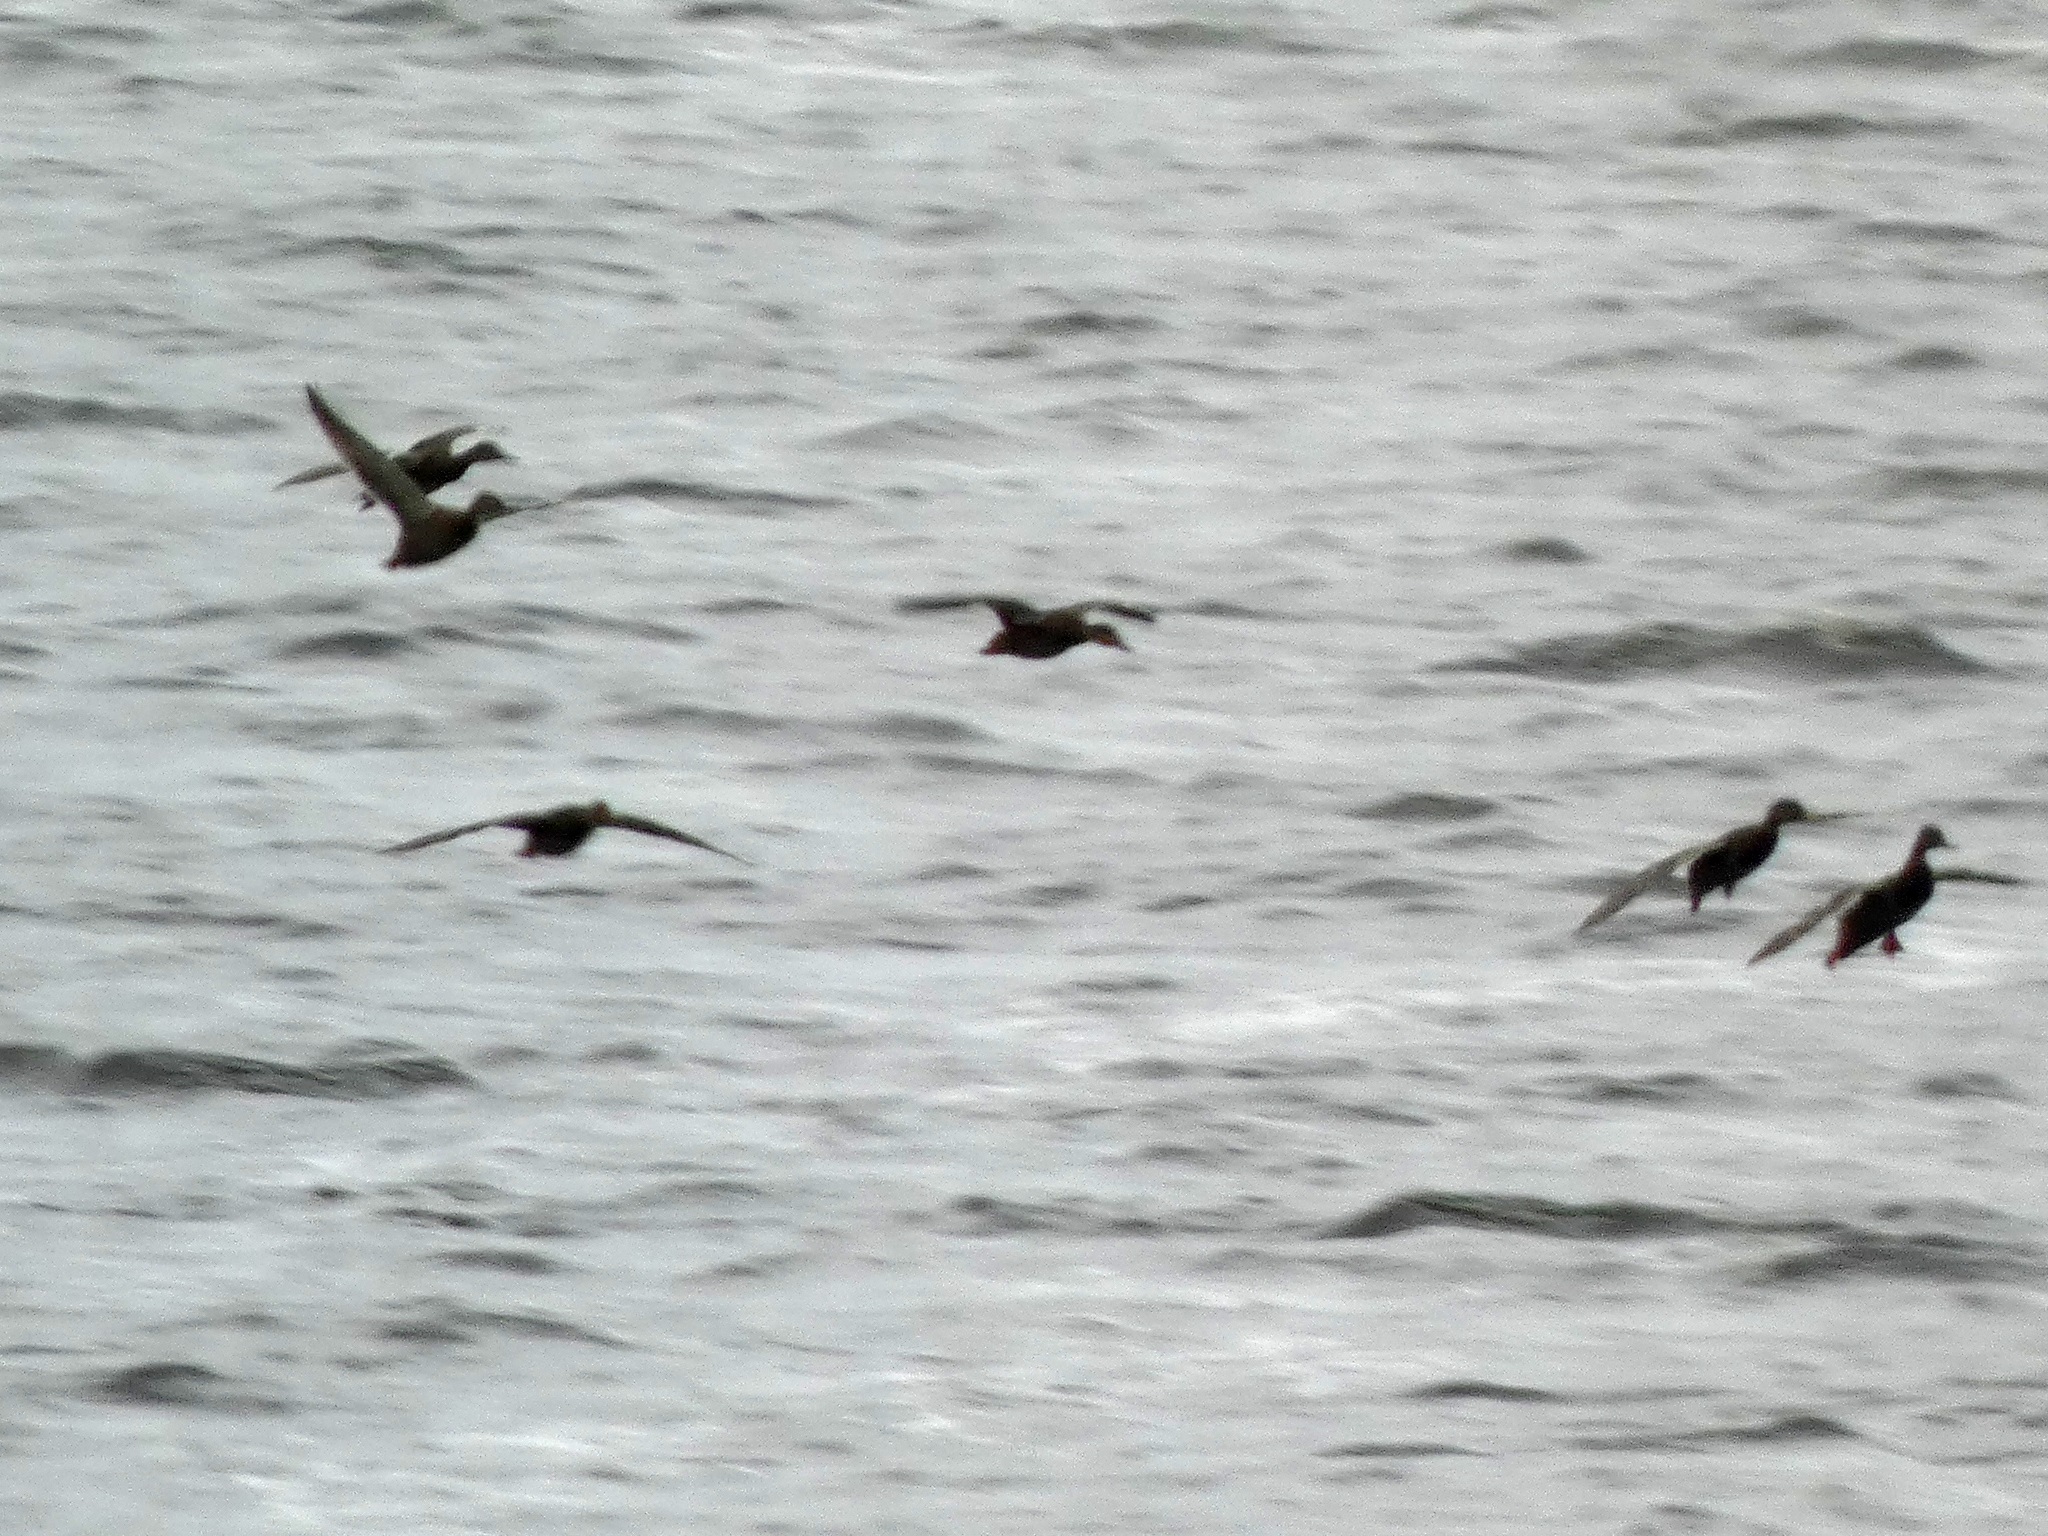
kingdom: Animalia
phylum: Chordata
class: Aves
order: Anseriformes
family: Anatidae
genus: Anas
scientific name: Anas platyrhynchos
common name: Mallard
